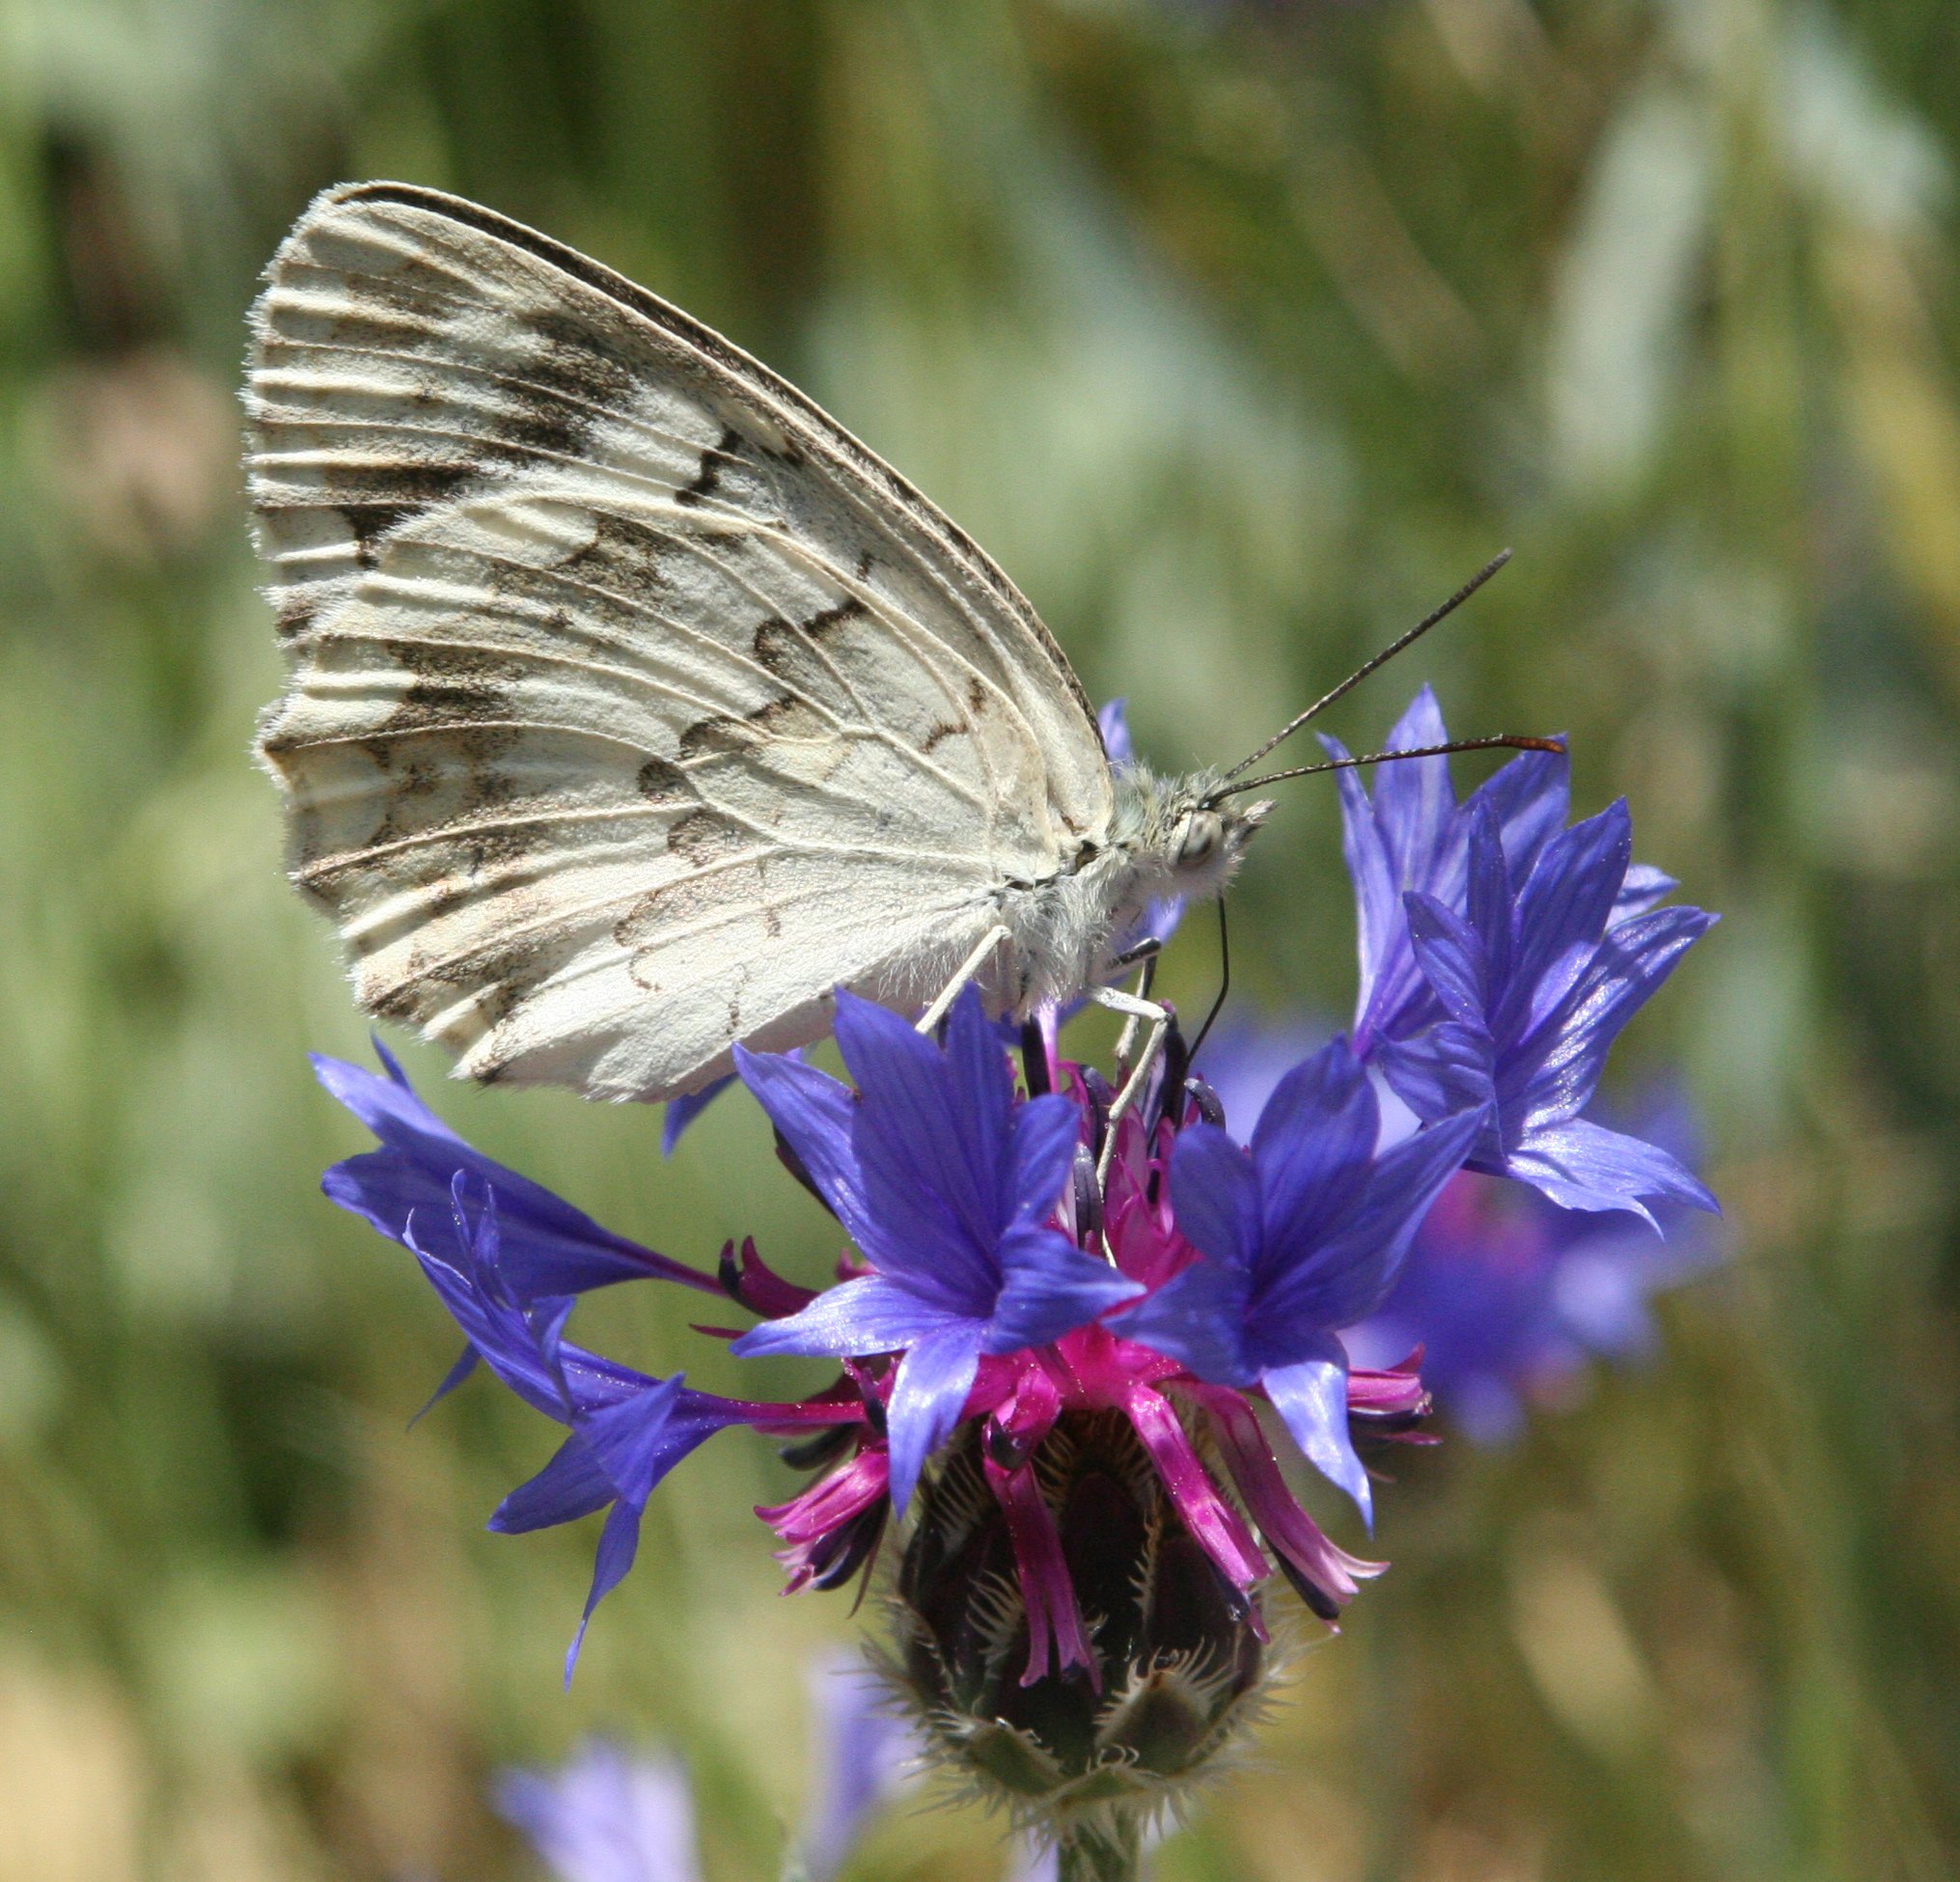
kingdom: Animalia
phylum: Arthropoda
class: Insecta
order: Lepidoptera
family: Nymphalidae
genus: Melanargia
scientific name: Melanargia larissa
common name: Balkan marbled white
